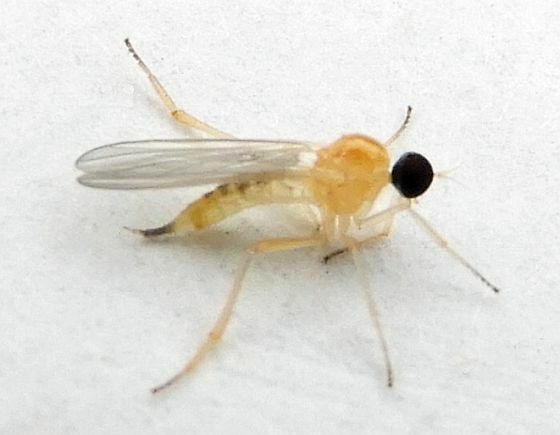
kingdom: Animalia
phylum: Arthropoda
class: Insecta
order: Diptera
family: Hybotidae
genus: Leptopeza
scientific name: Leptopeza compta
